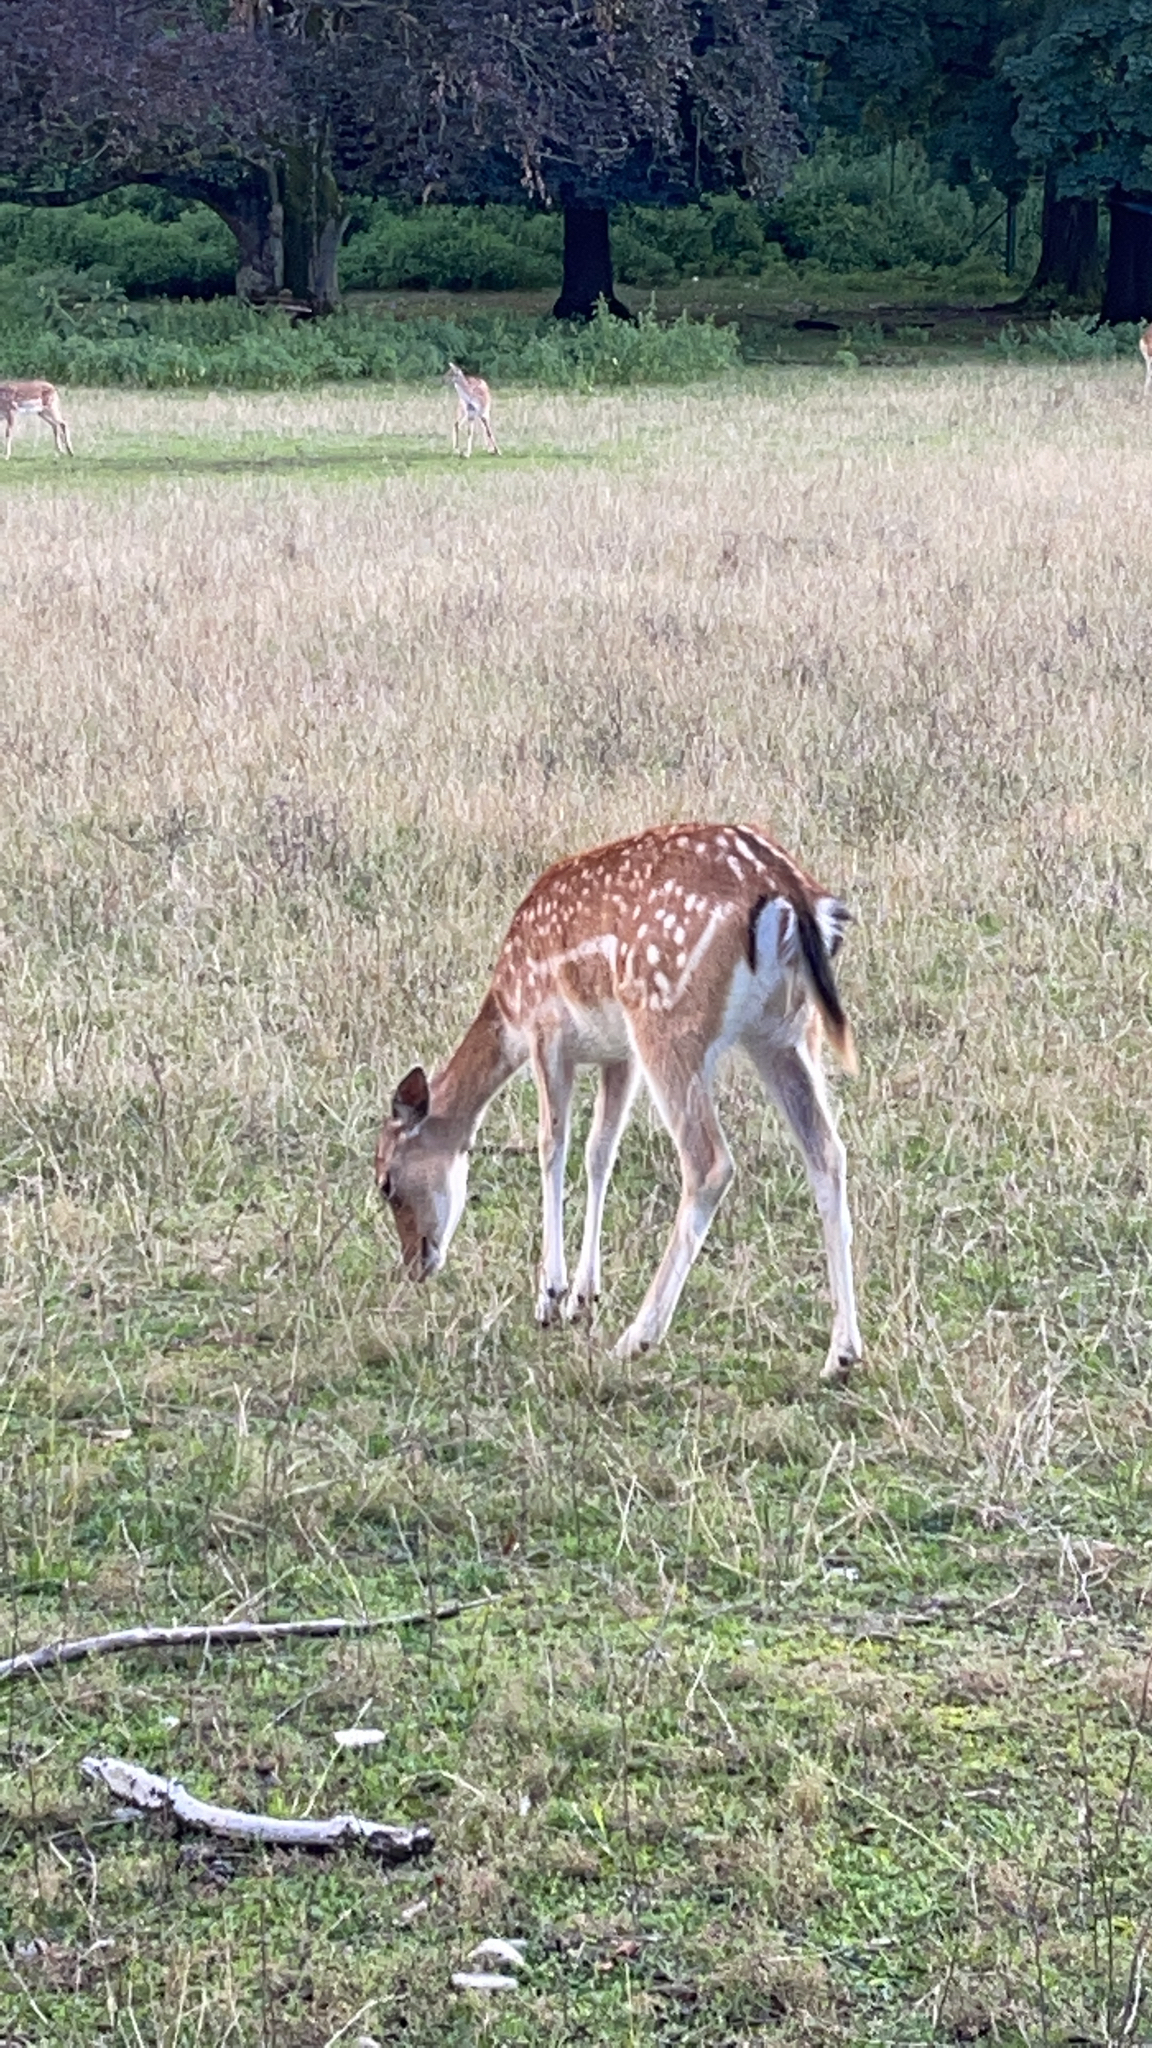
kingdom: Animalia
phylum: Chordata
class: Mammalia
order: Artiodactyla
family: Cervidae
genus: Dama
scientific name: Dama dama
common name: Fallow deer
